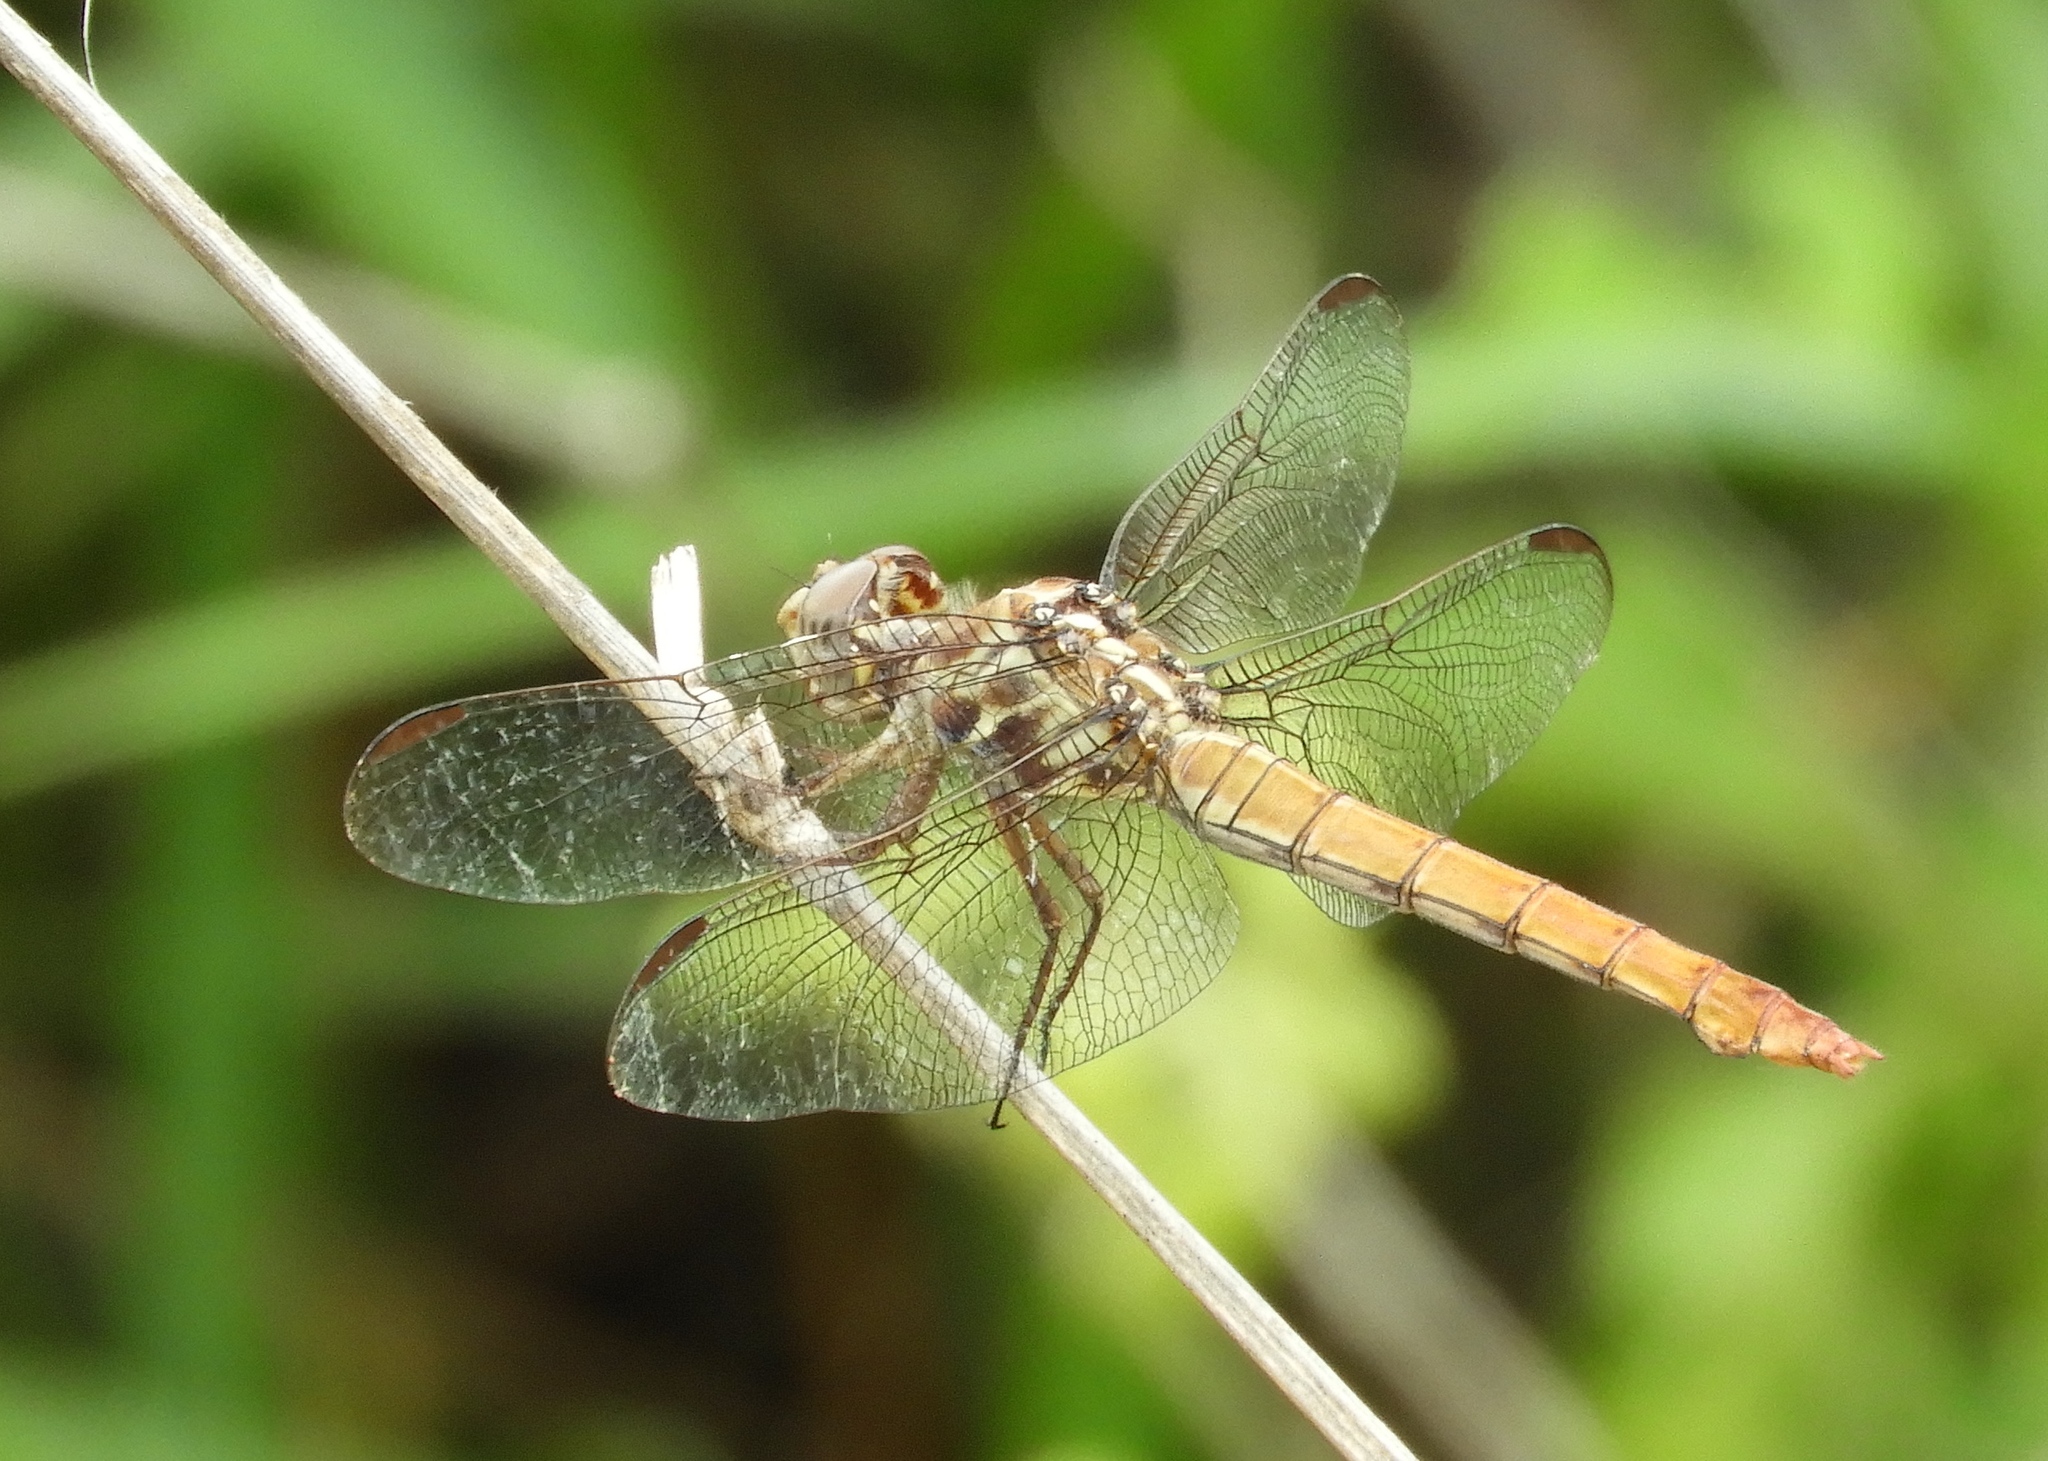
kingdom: Animalia
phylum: Arthropoda
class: Insecta
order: Odonata
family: Libellulidae
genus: Orthemis
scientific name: Orthemis ferruginea
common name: Roseate skimmer
